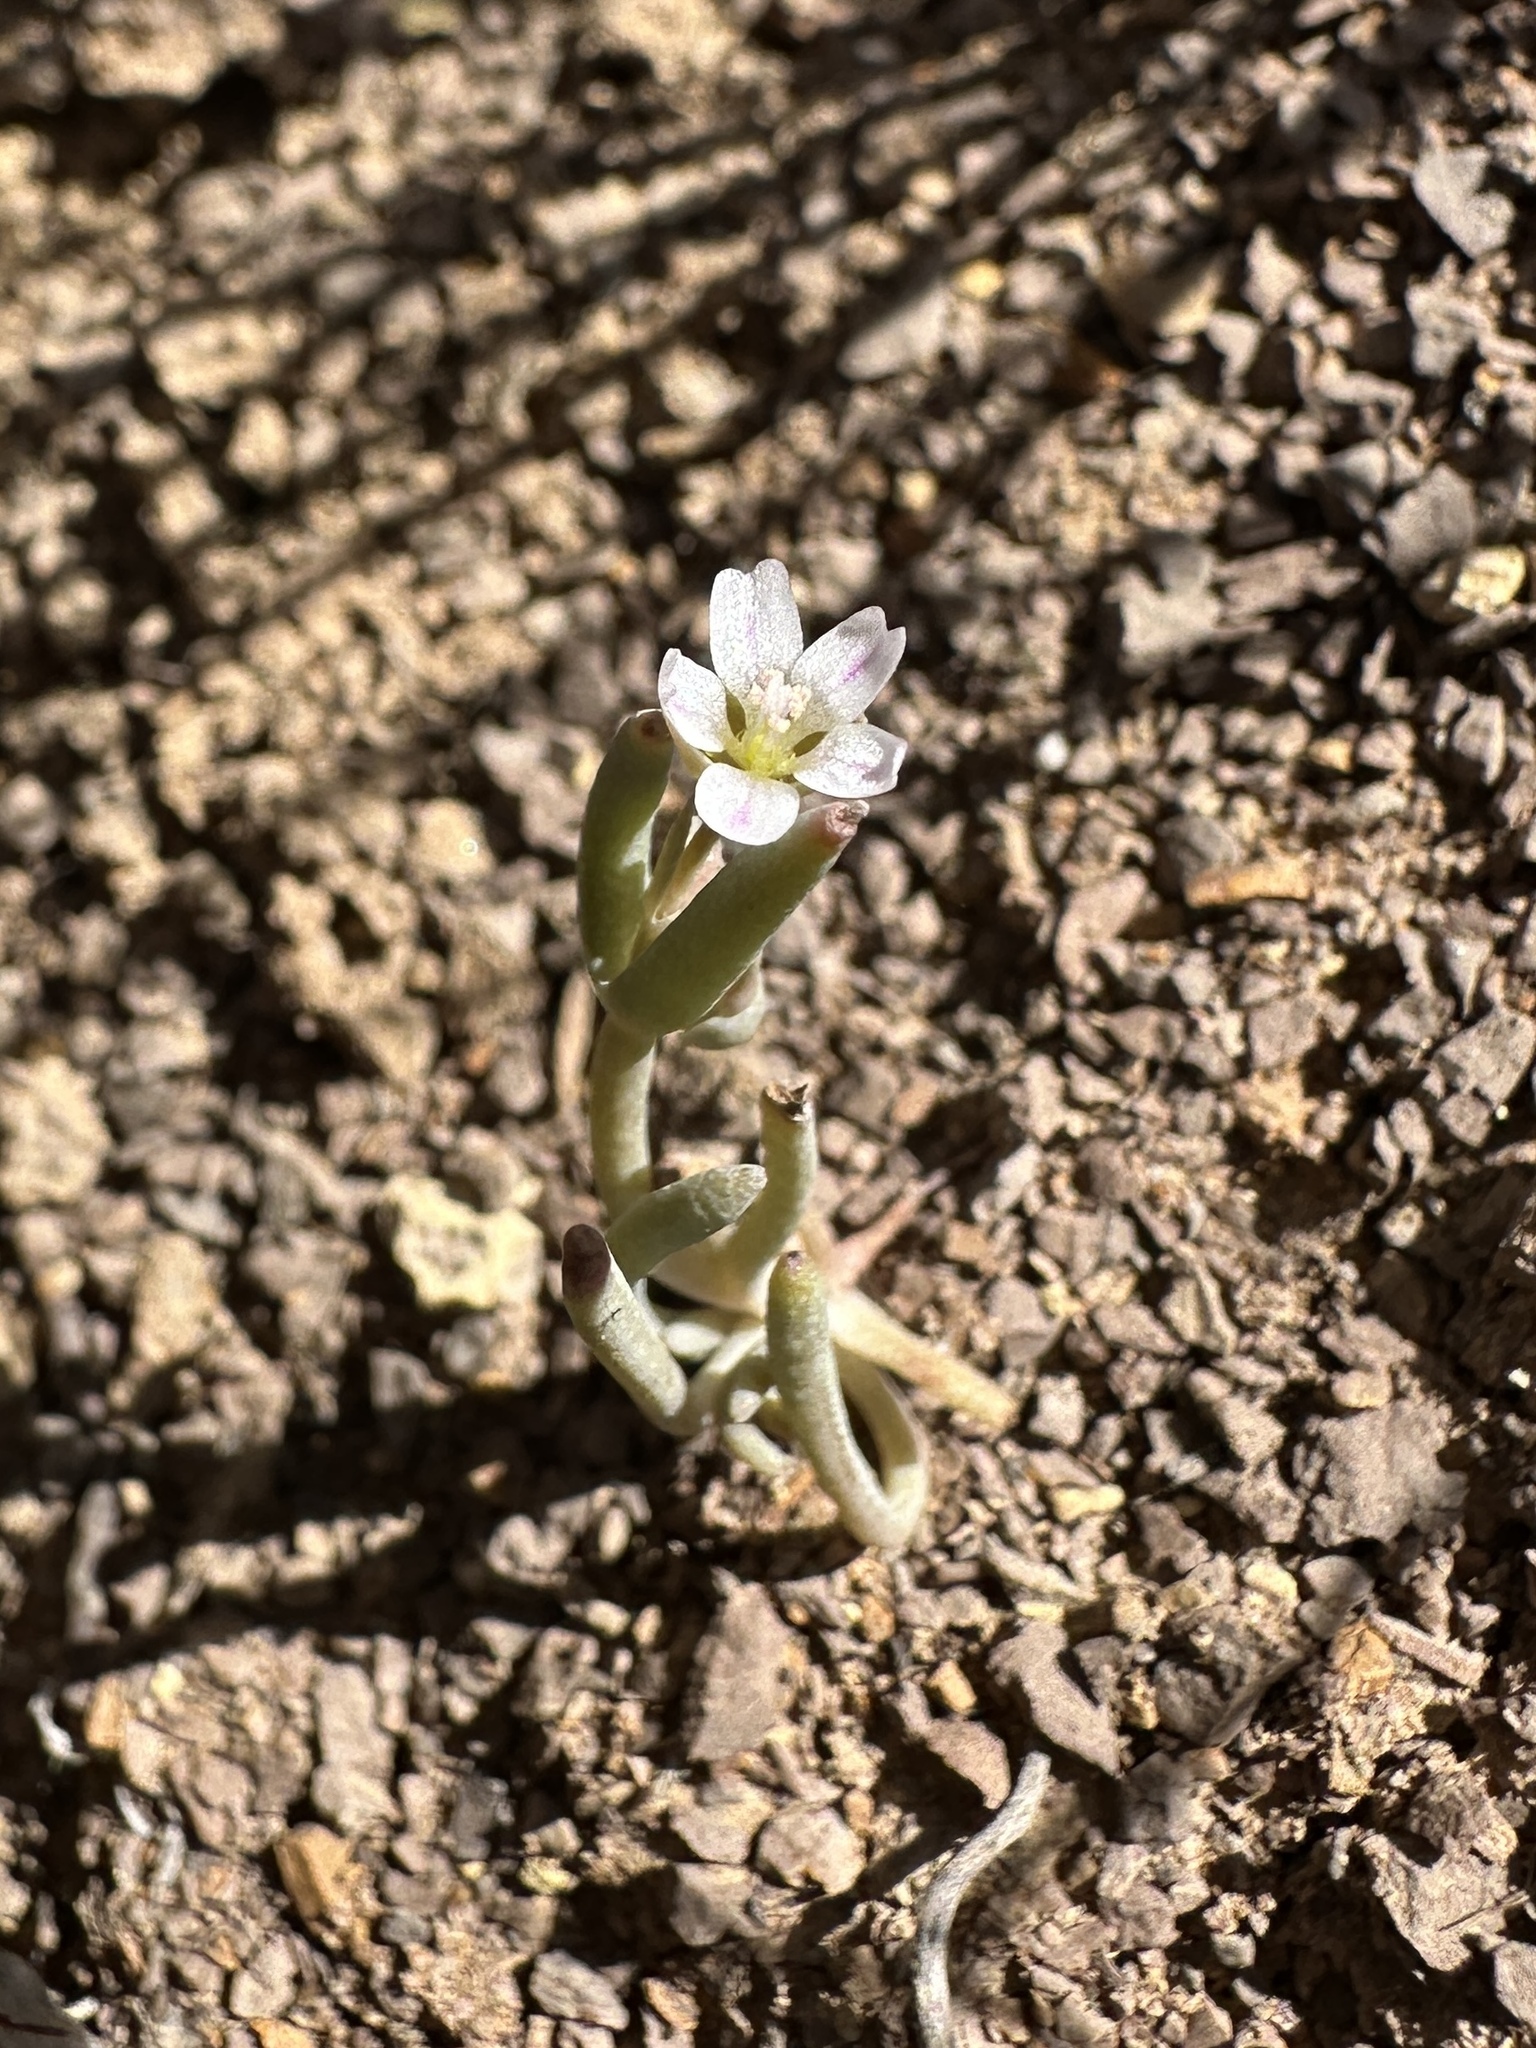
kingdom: Plantae
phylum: Tracheophyta
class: Magnoliopsida
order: Caryophyllales
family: Montiaceae
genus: Claytonia
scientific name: Claytonia exigua
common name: Pale spring beauty
